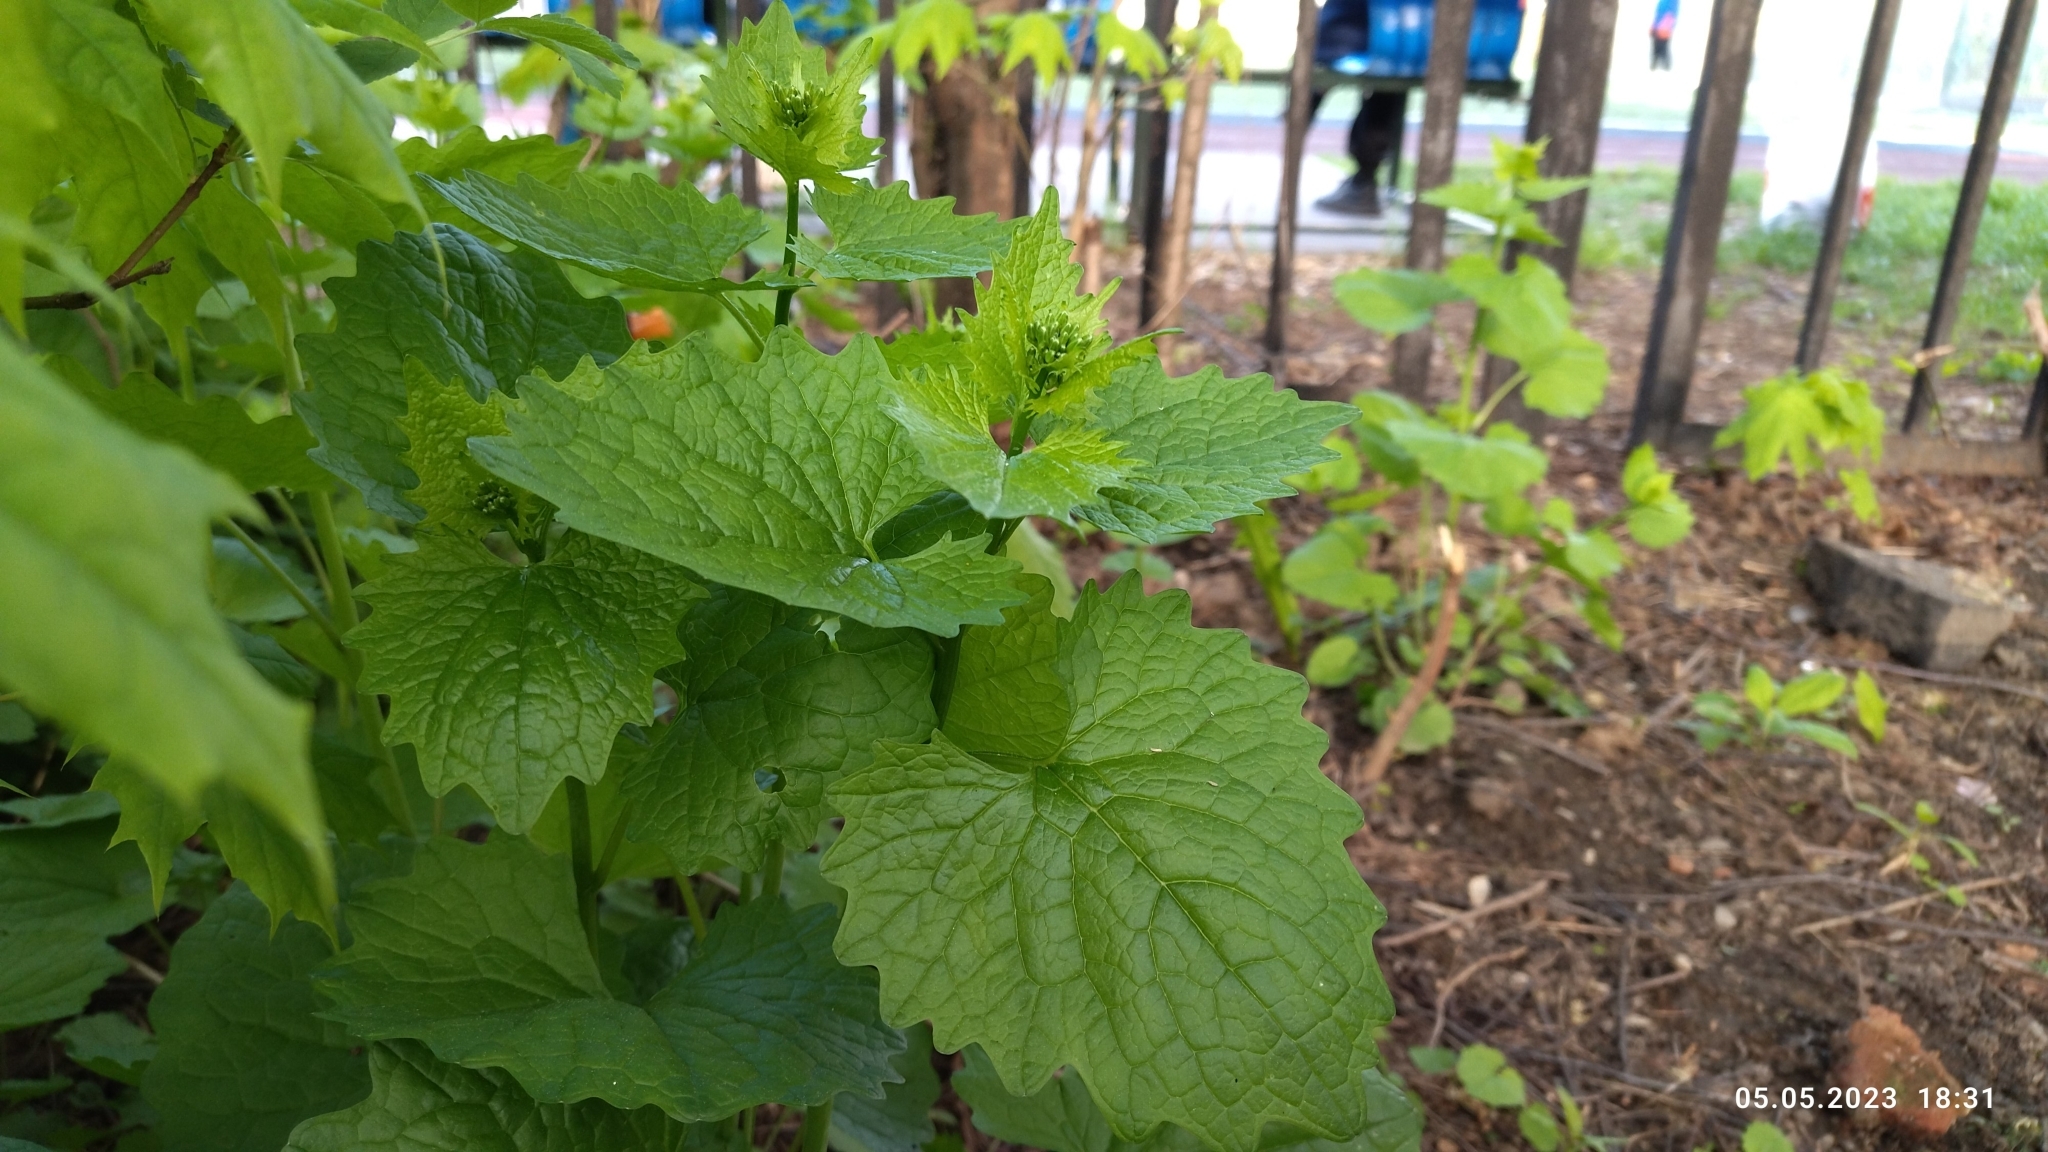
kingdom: Plantae
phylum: Tracheophyta
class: Magnoliopsida
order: Brassicales
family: Brassicaceae
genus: Alliaria
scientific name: Alliaria petiolata
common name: Garlic mustard
